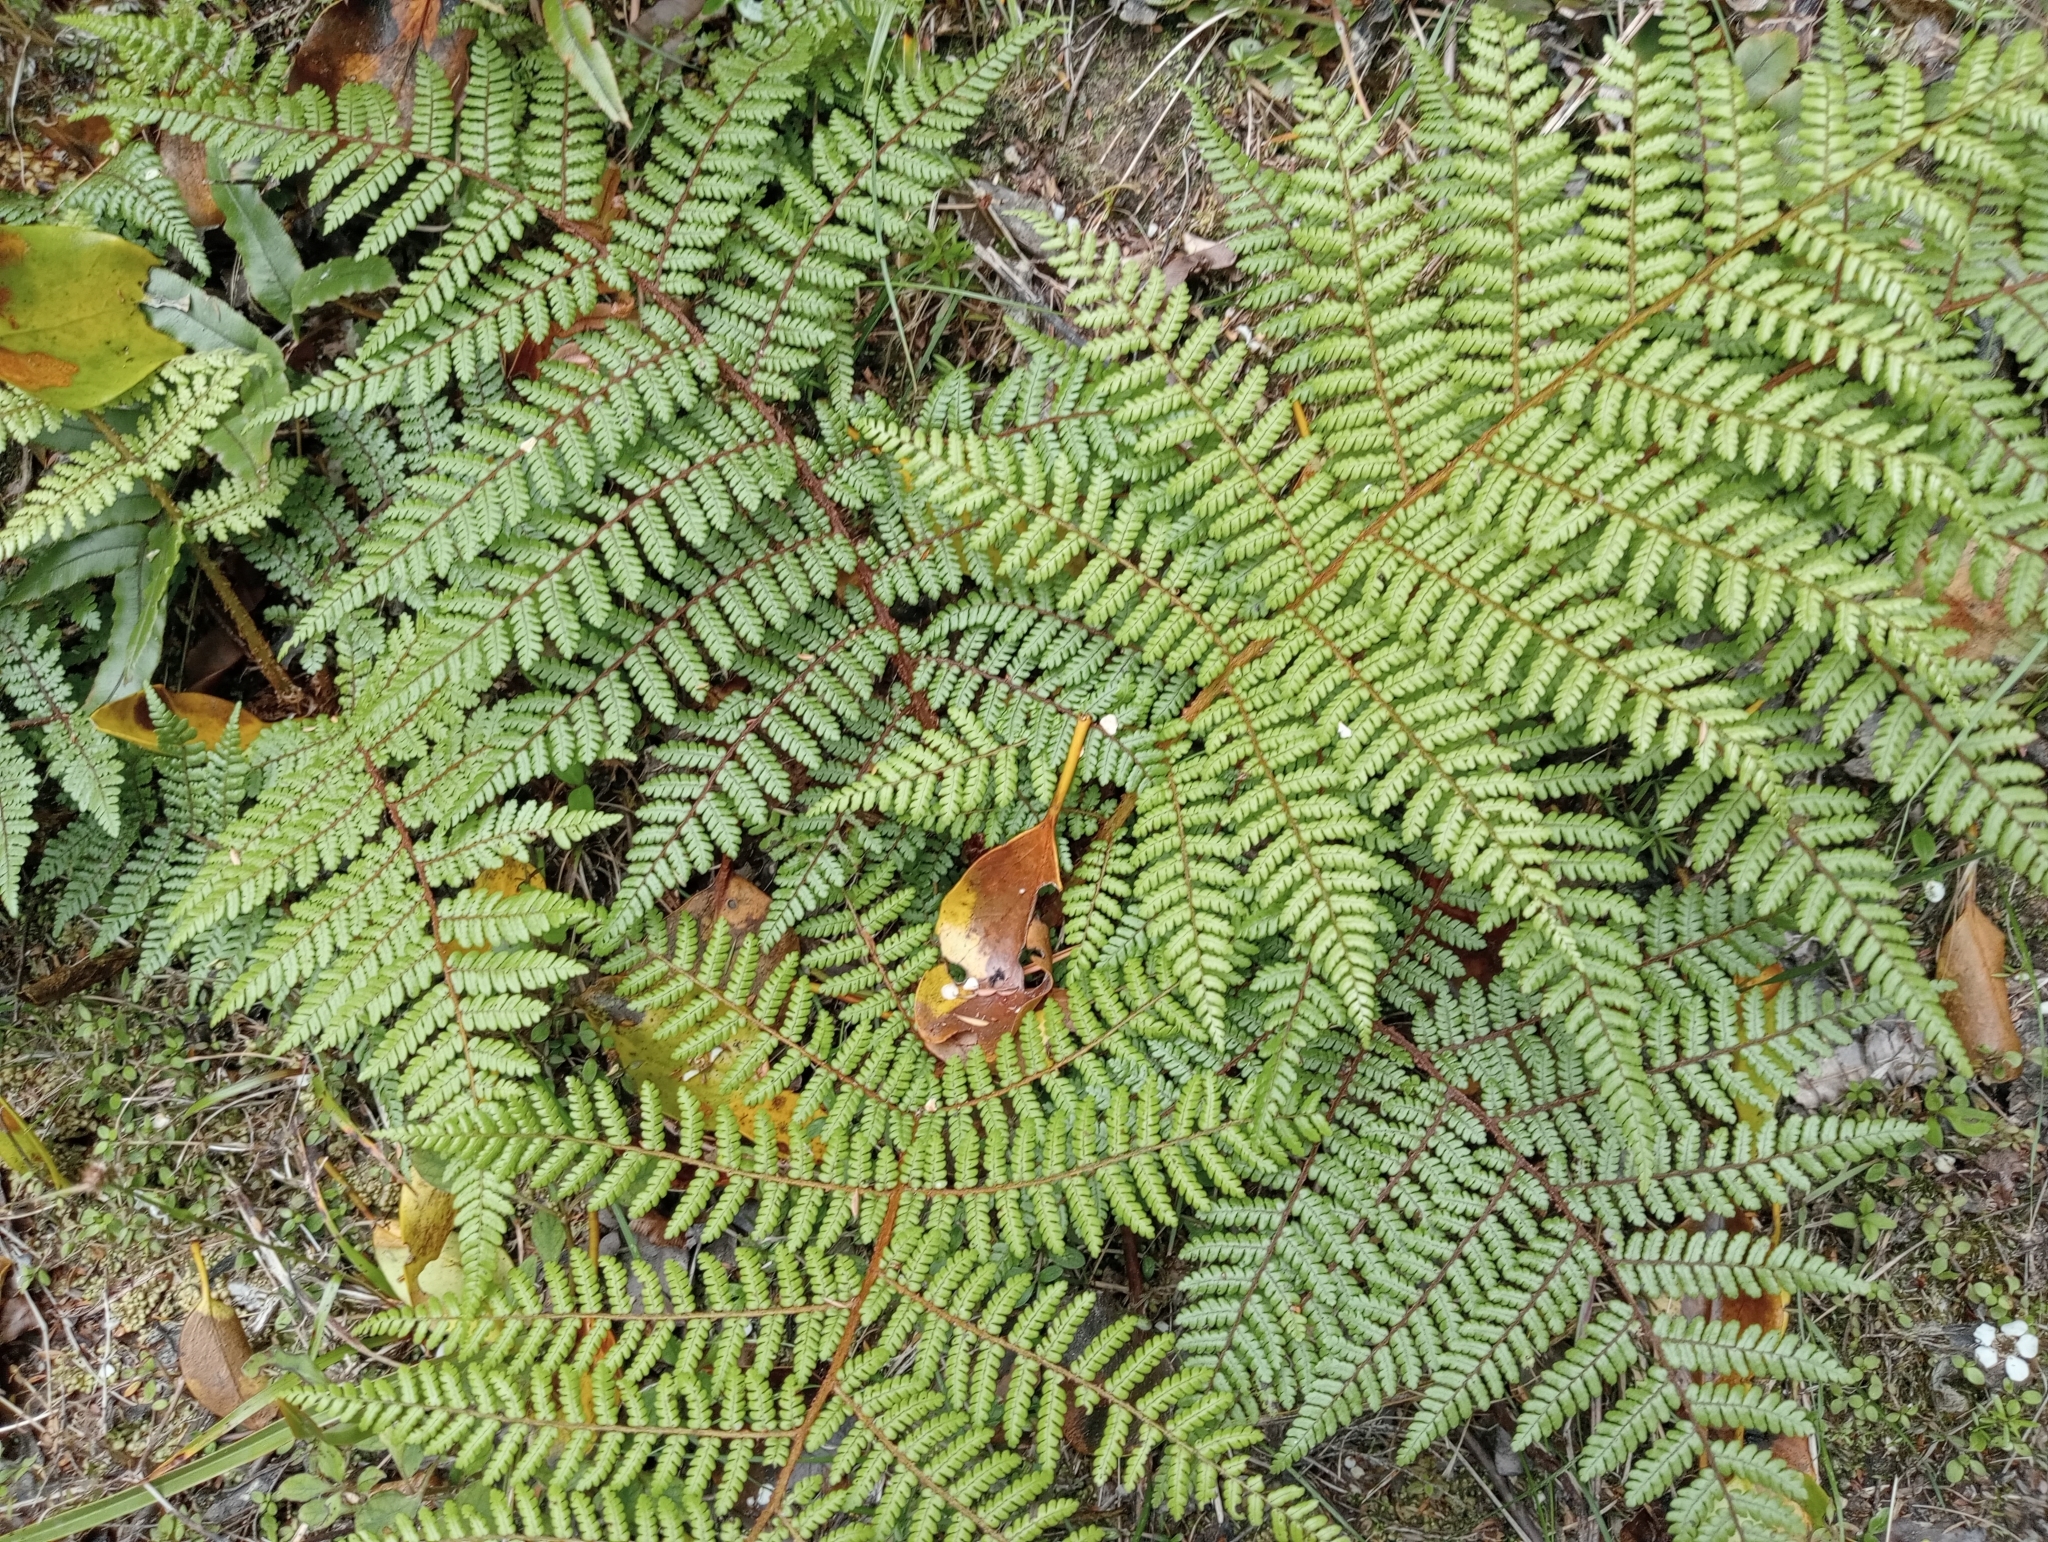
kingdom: Plantae
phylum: Tracheophyta
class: Polypodiopsida
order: Cyatheales
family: Cyatheaceae
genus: Alsophila
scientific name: Alsophila colensoi
